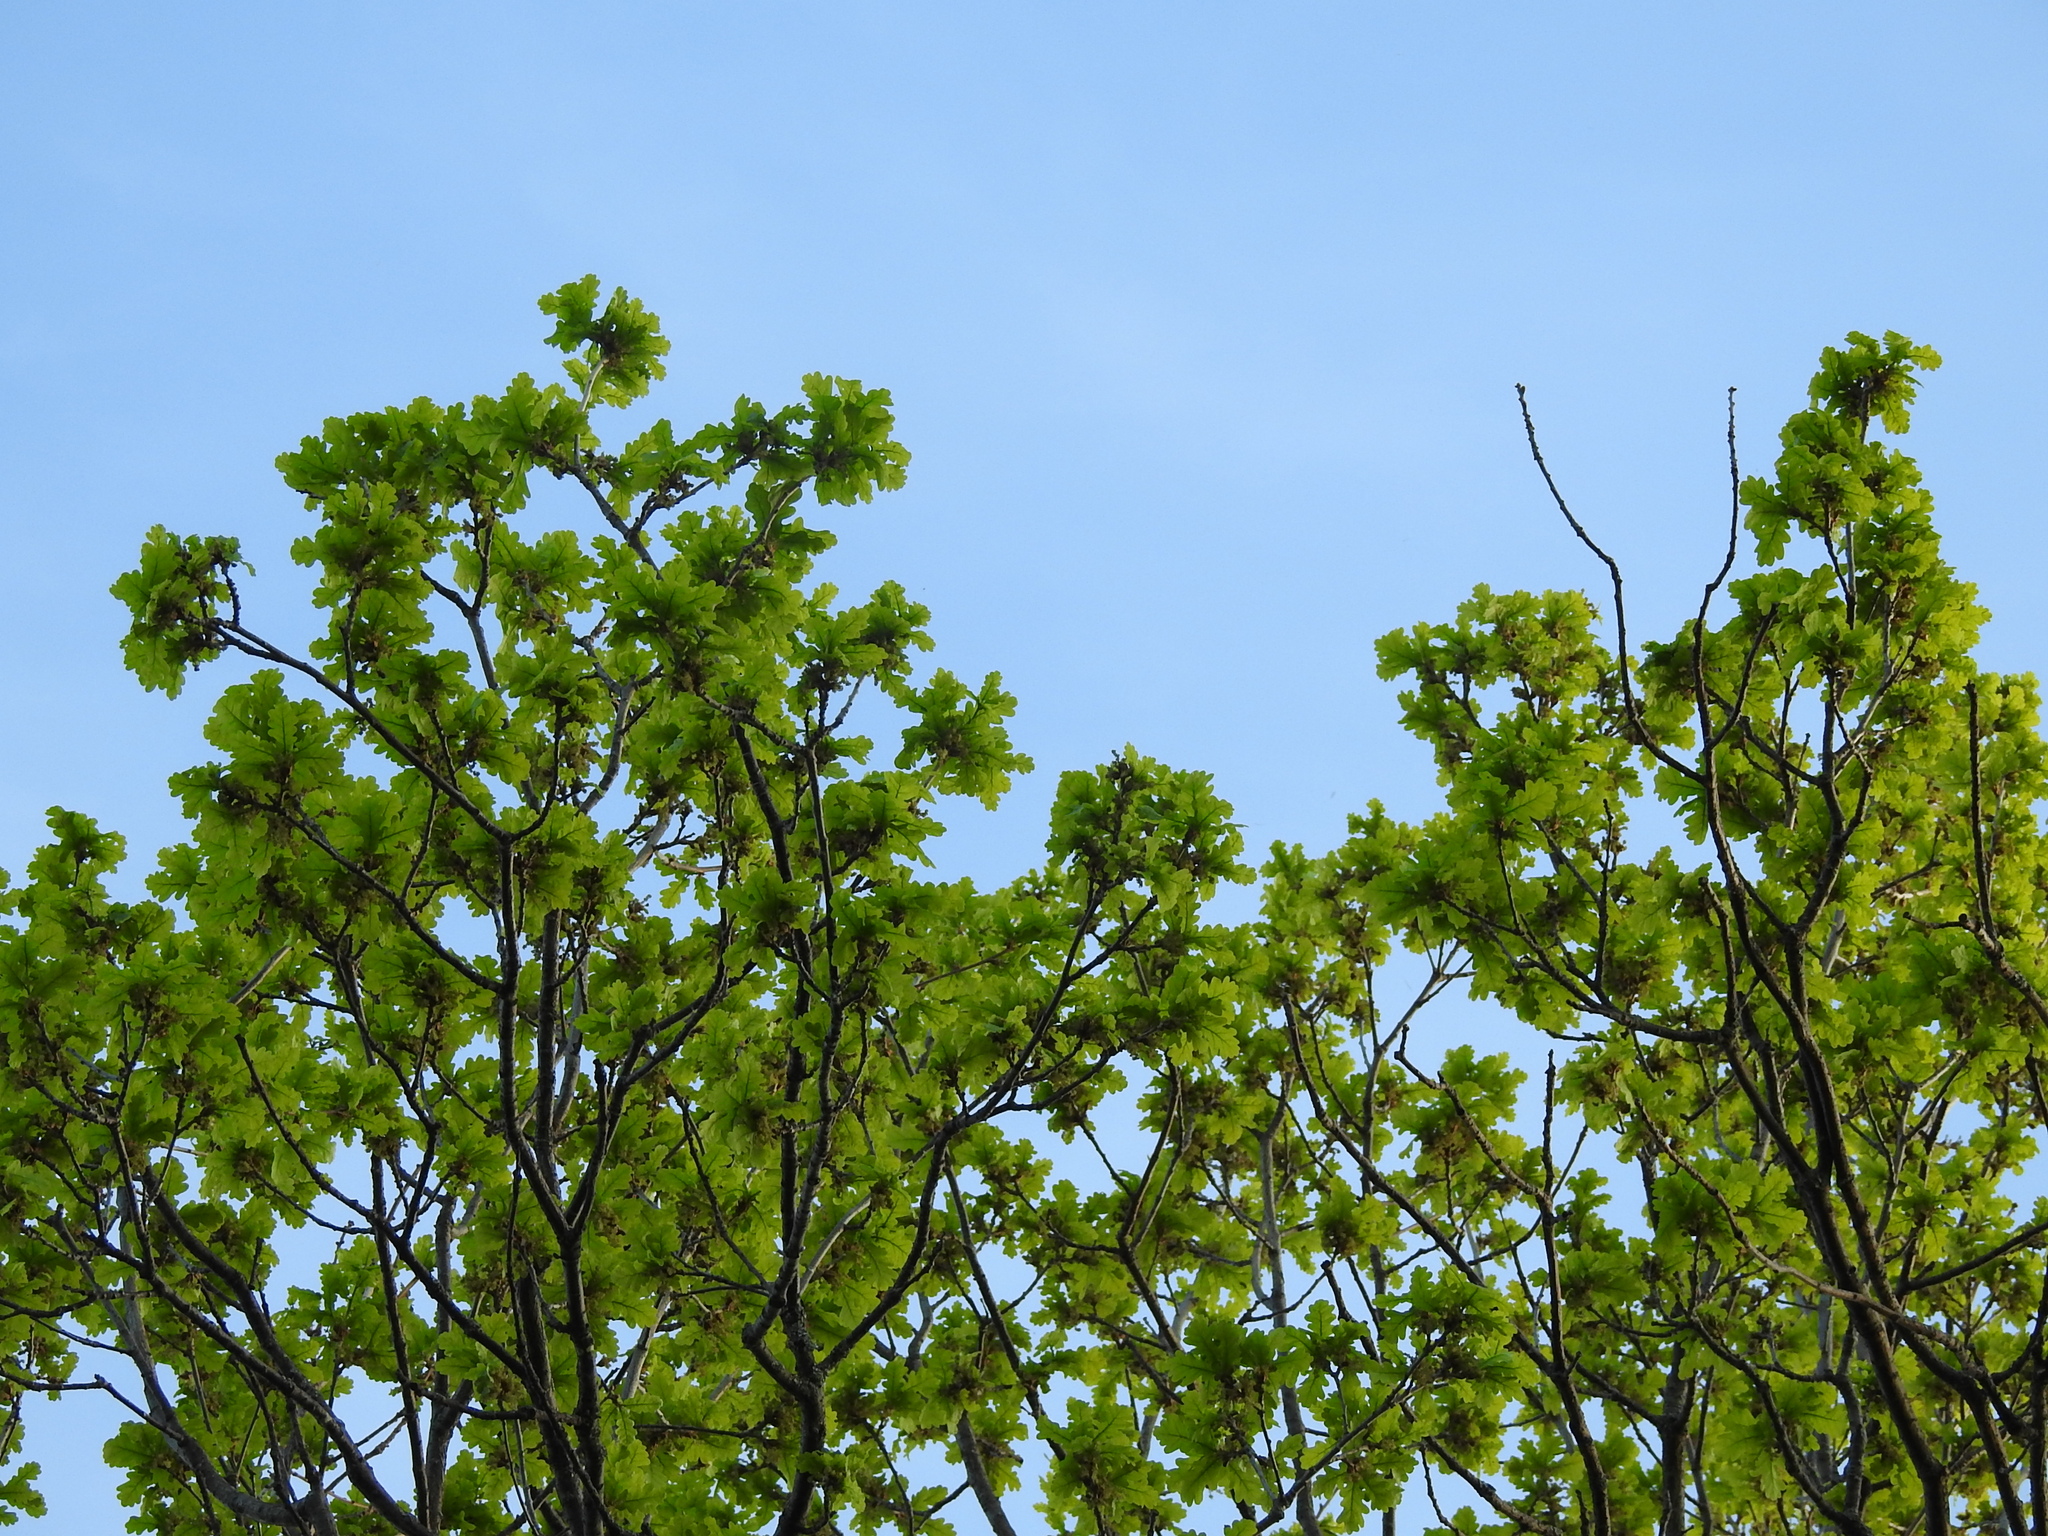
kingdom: Plantae
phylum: Tracheophyta
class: Magnoliopsida
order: Fagales
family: Fagaceae
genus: Quercus
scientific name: Quercus robur
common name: Pedunculate oak
